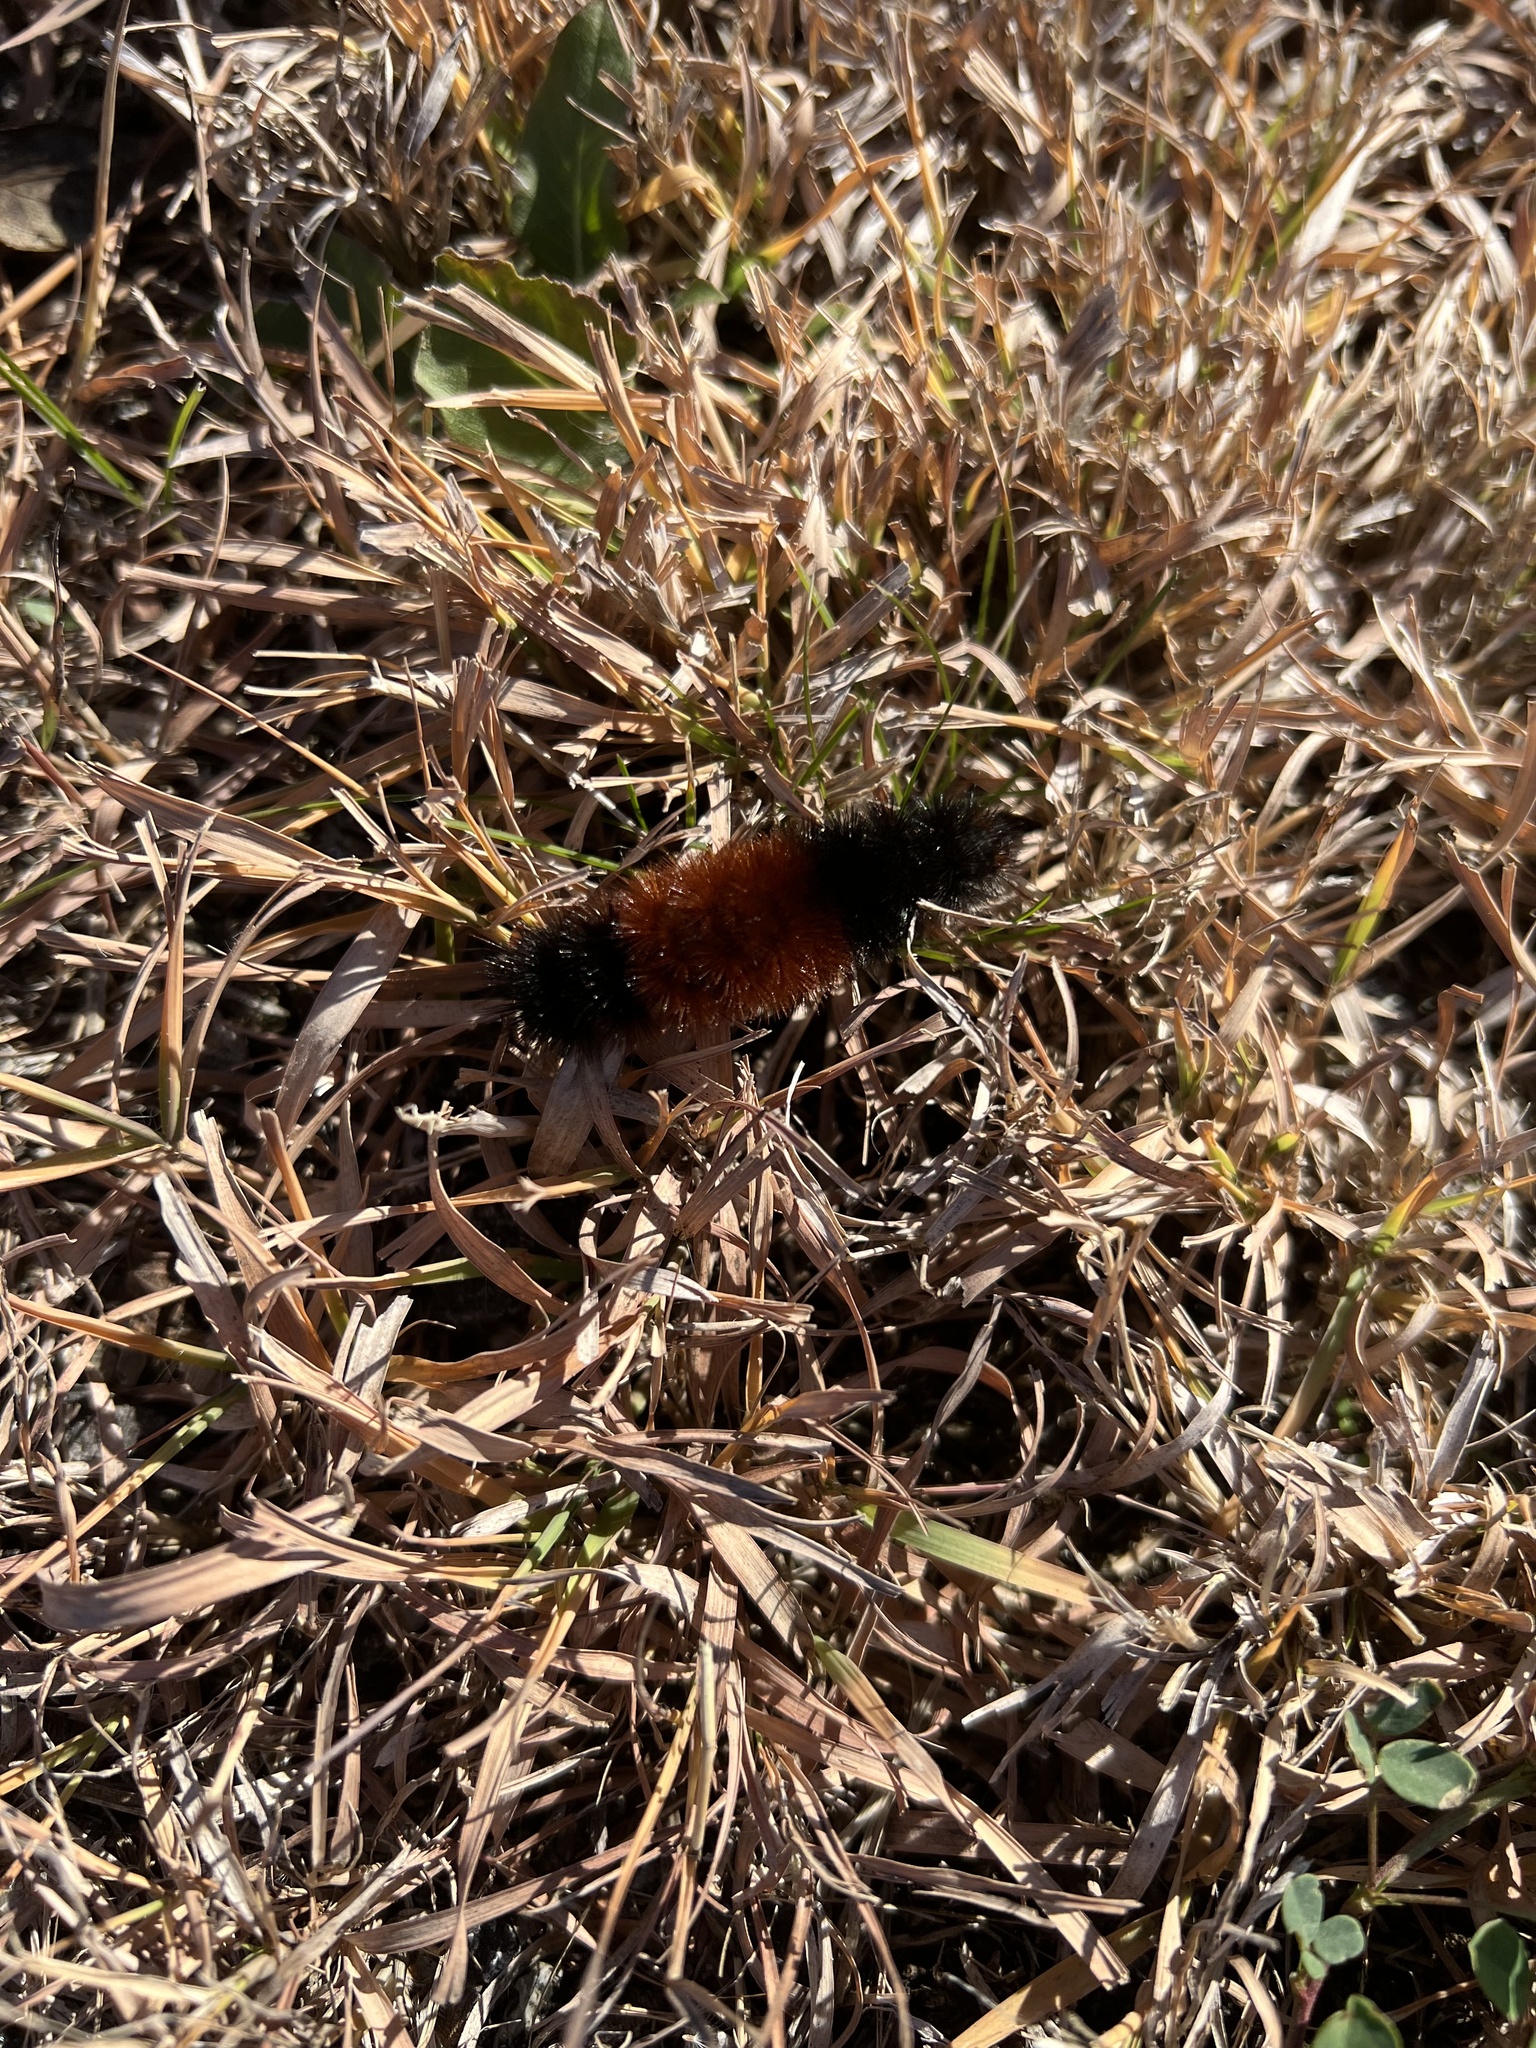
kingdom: Animalia
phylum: Arthropoda
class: Insecta
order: Lepidoptera
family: Erebidae
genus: Pyrrharctia
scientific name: Pyrrharctia isabella
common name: Isabella tiger moth
